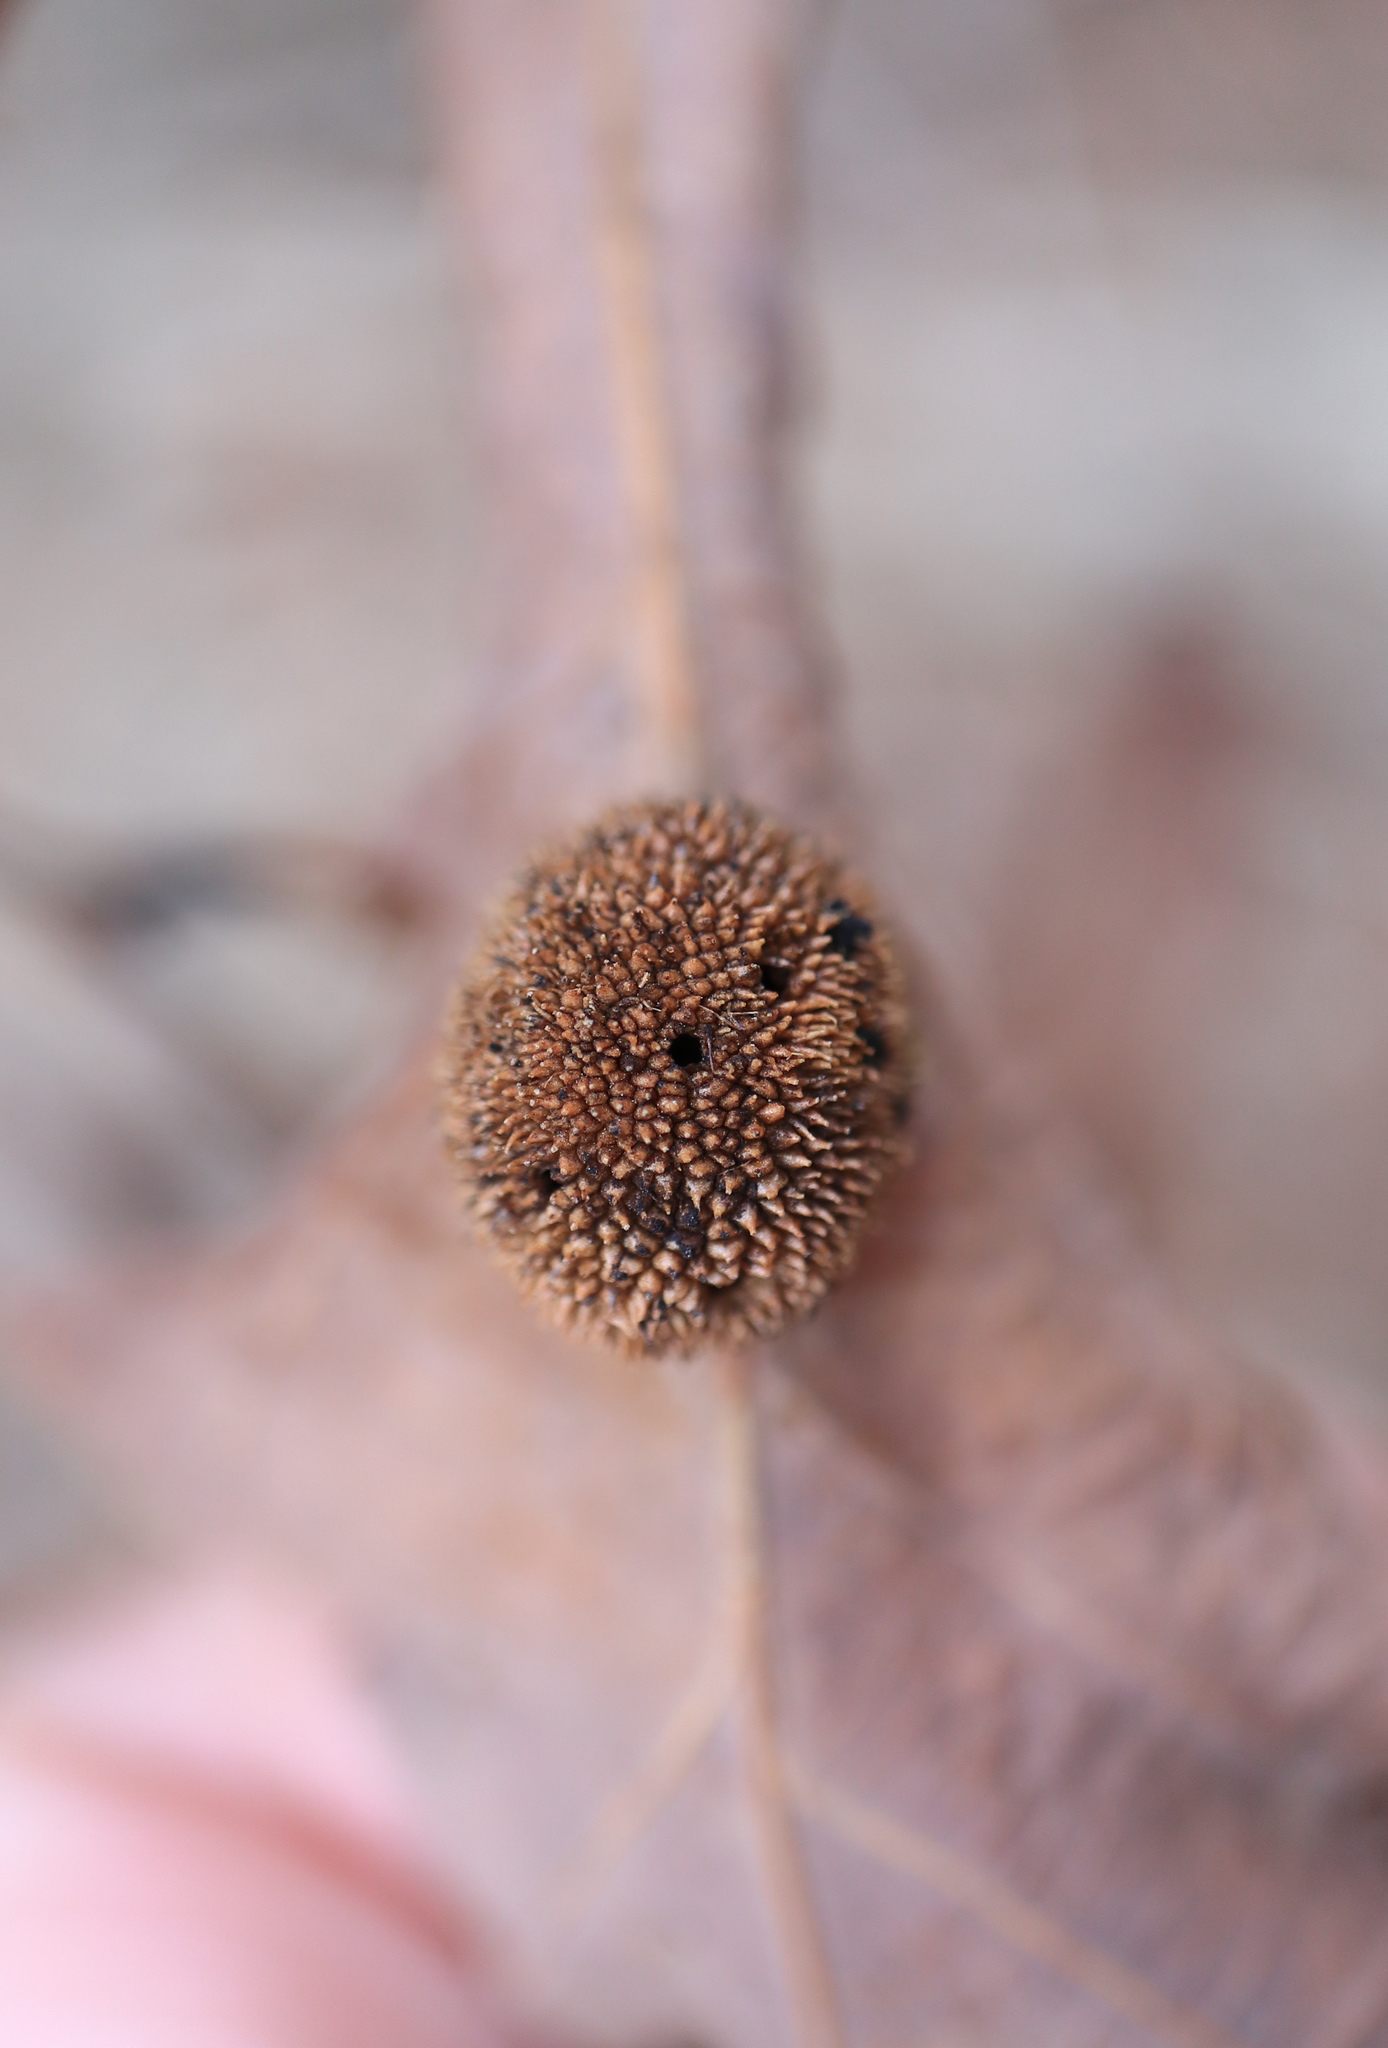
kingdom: Animalia
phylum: Arthropoda
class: Insecta
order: Hymenoptera
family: Cynipidae
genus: Acraspis
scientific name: Acraspis erinacei
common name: Hedgehog gall wasp
